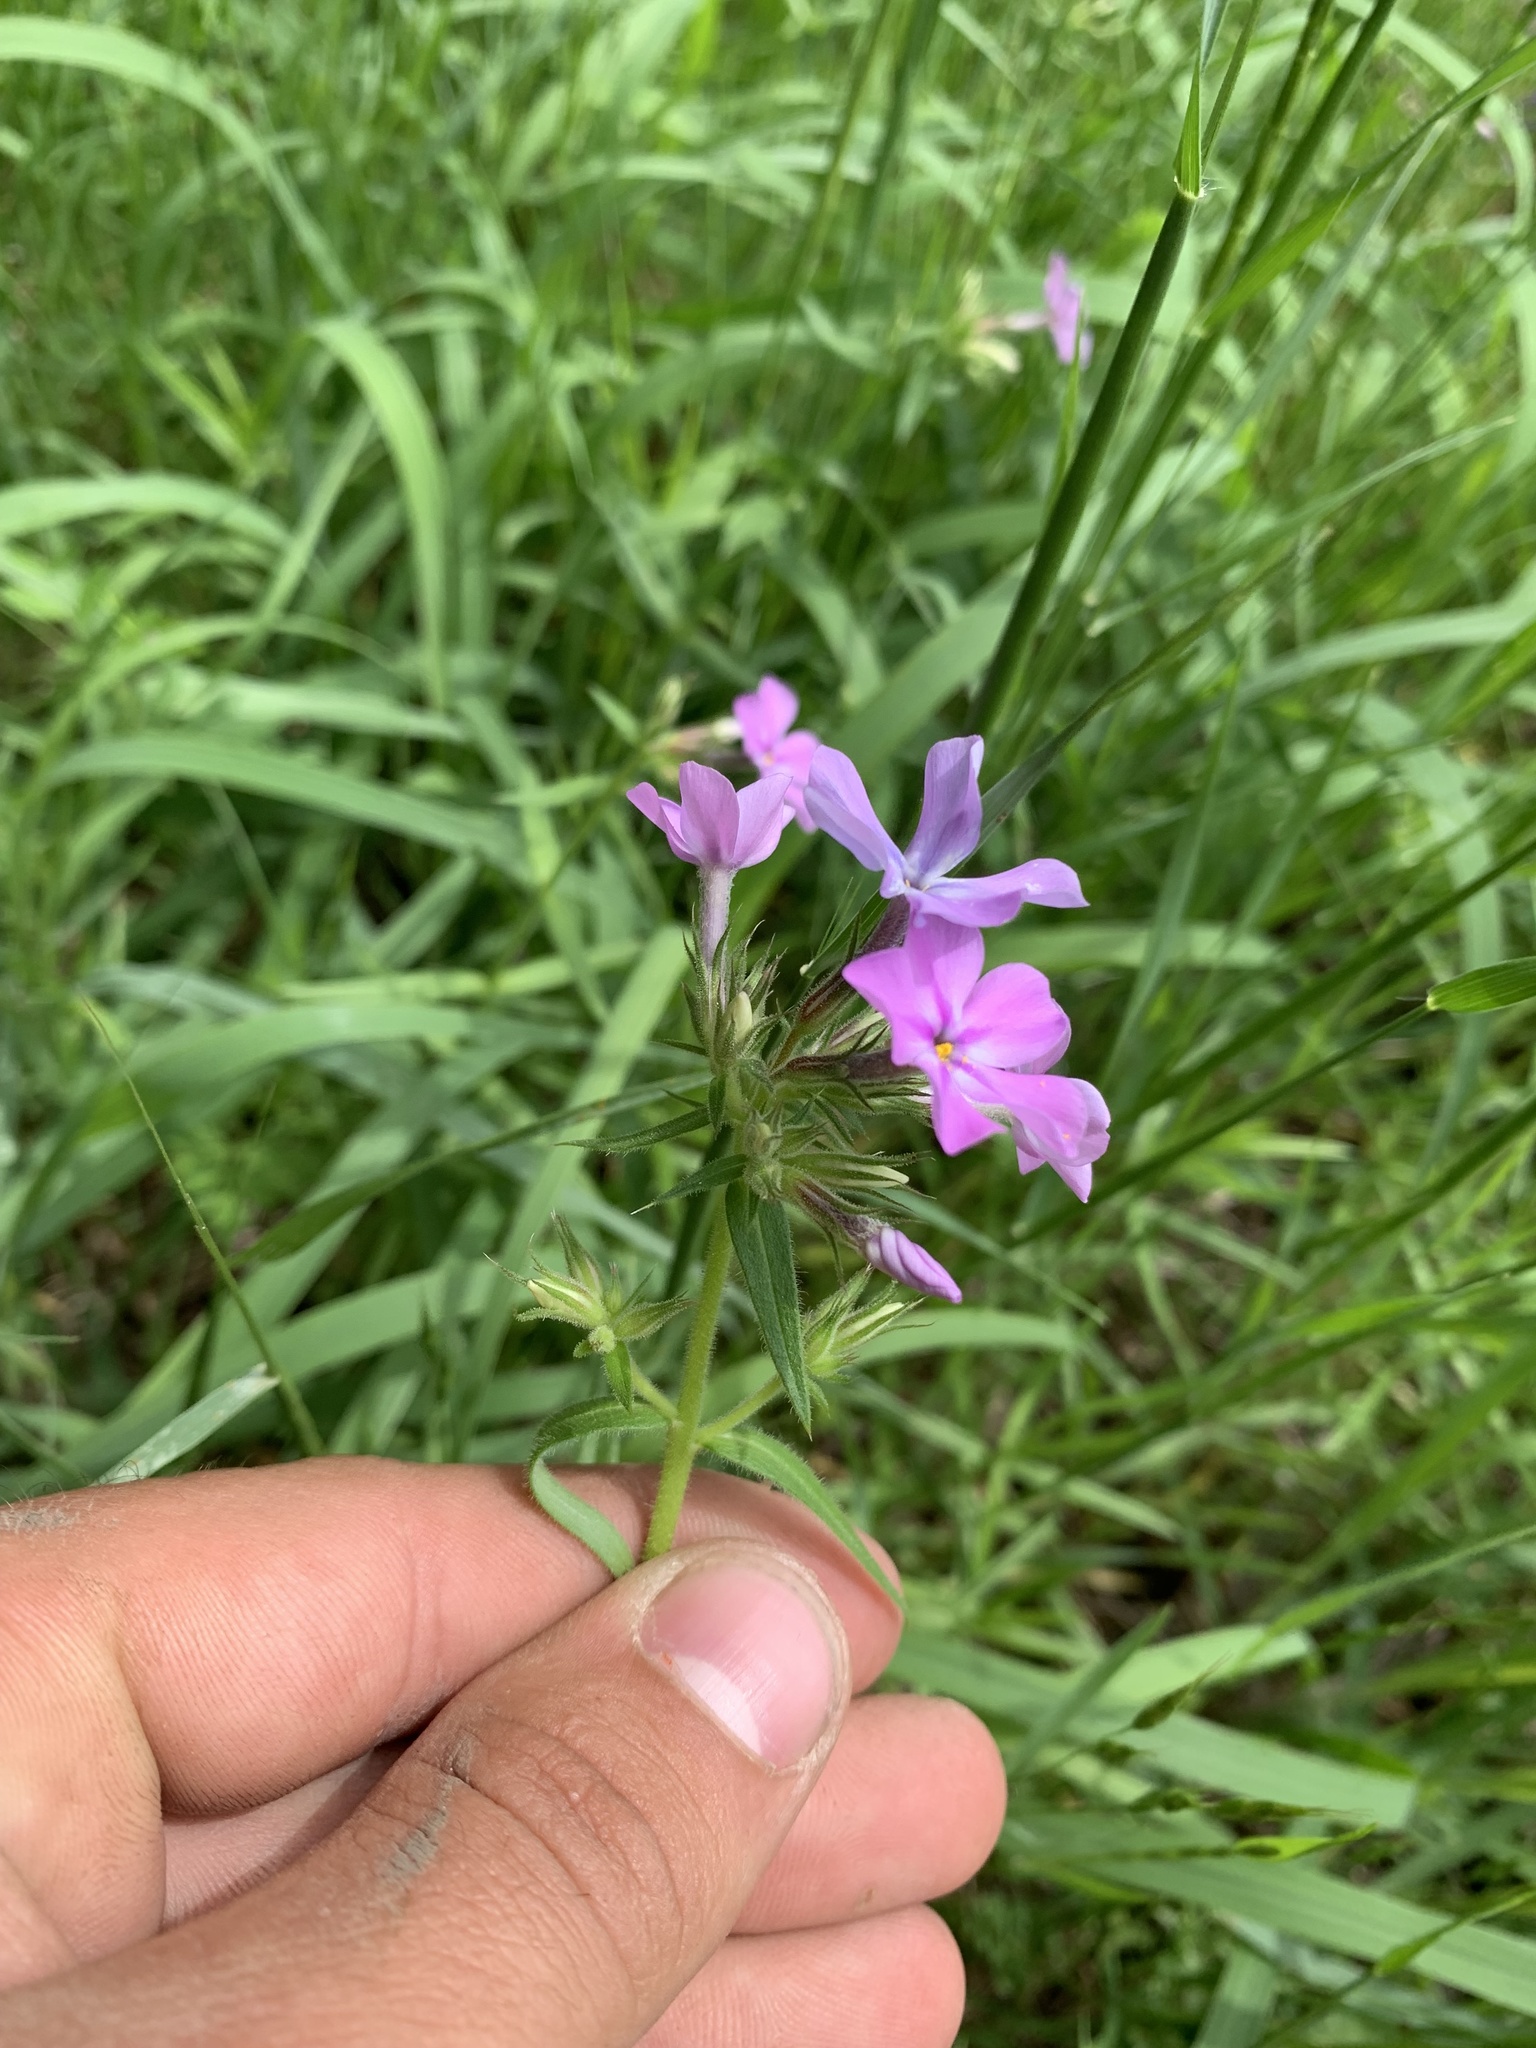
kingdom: Plantae
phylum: Tracheophyta
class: Magnoliopsida
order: Ericales
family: Polemoniaceae
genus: Phlox
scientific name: Phlox pilosa
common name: Prairie phlox
